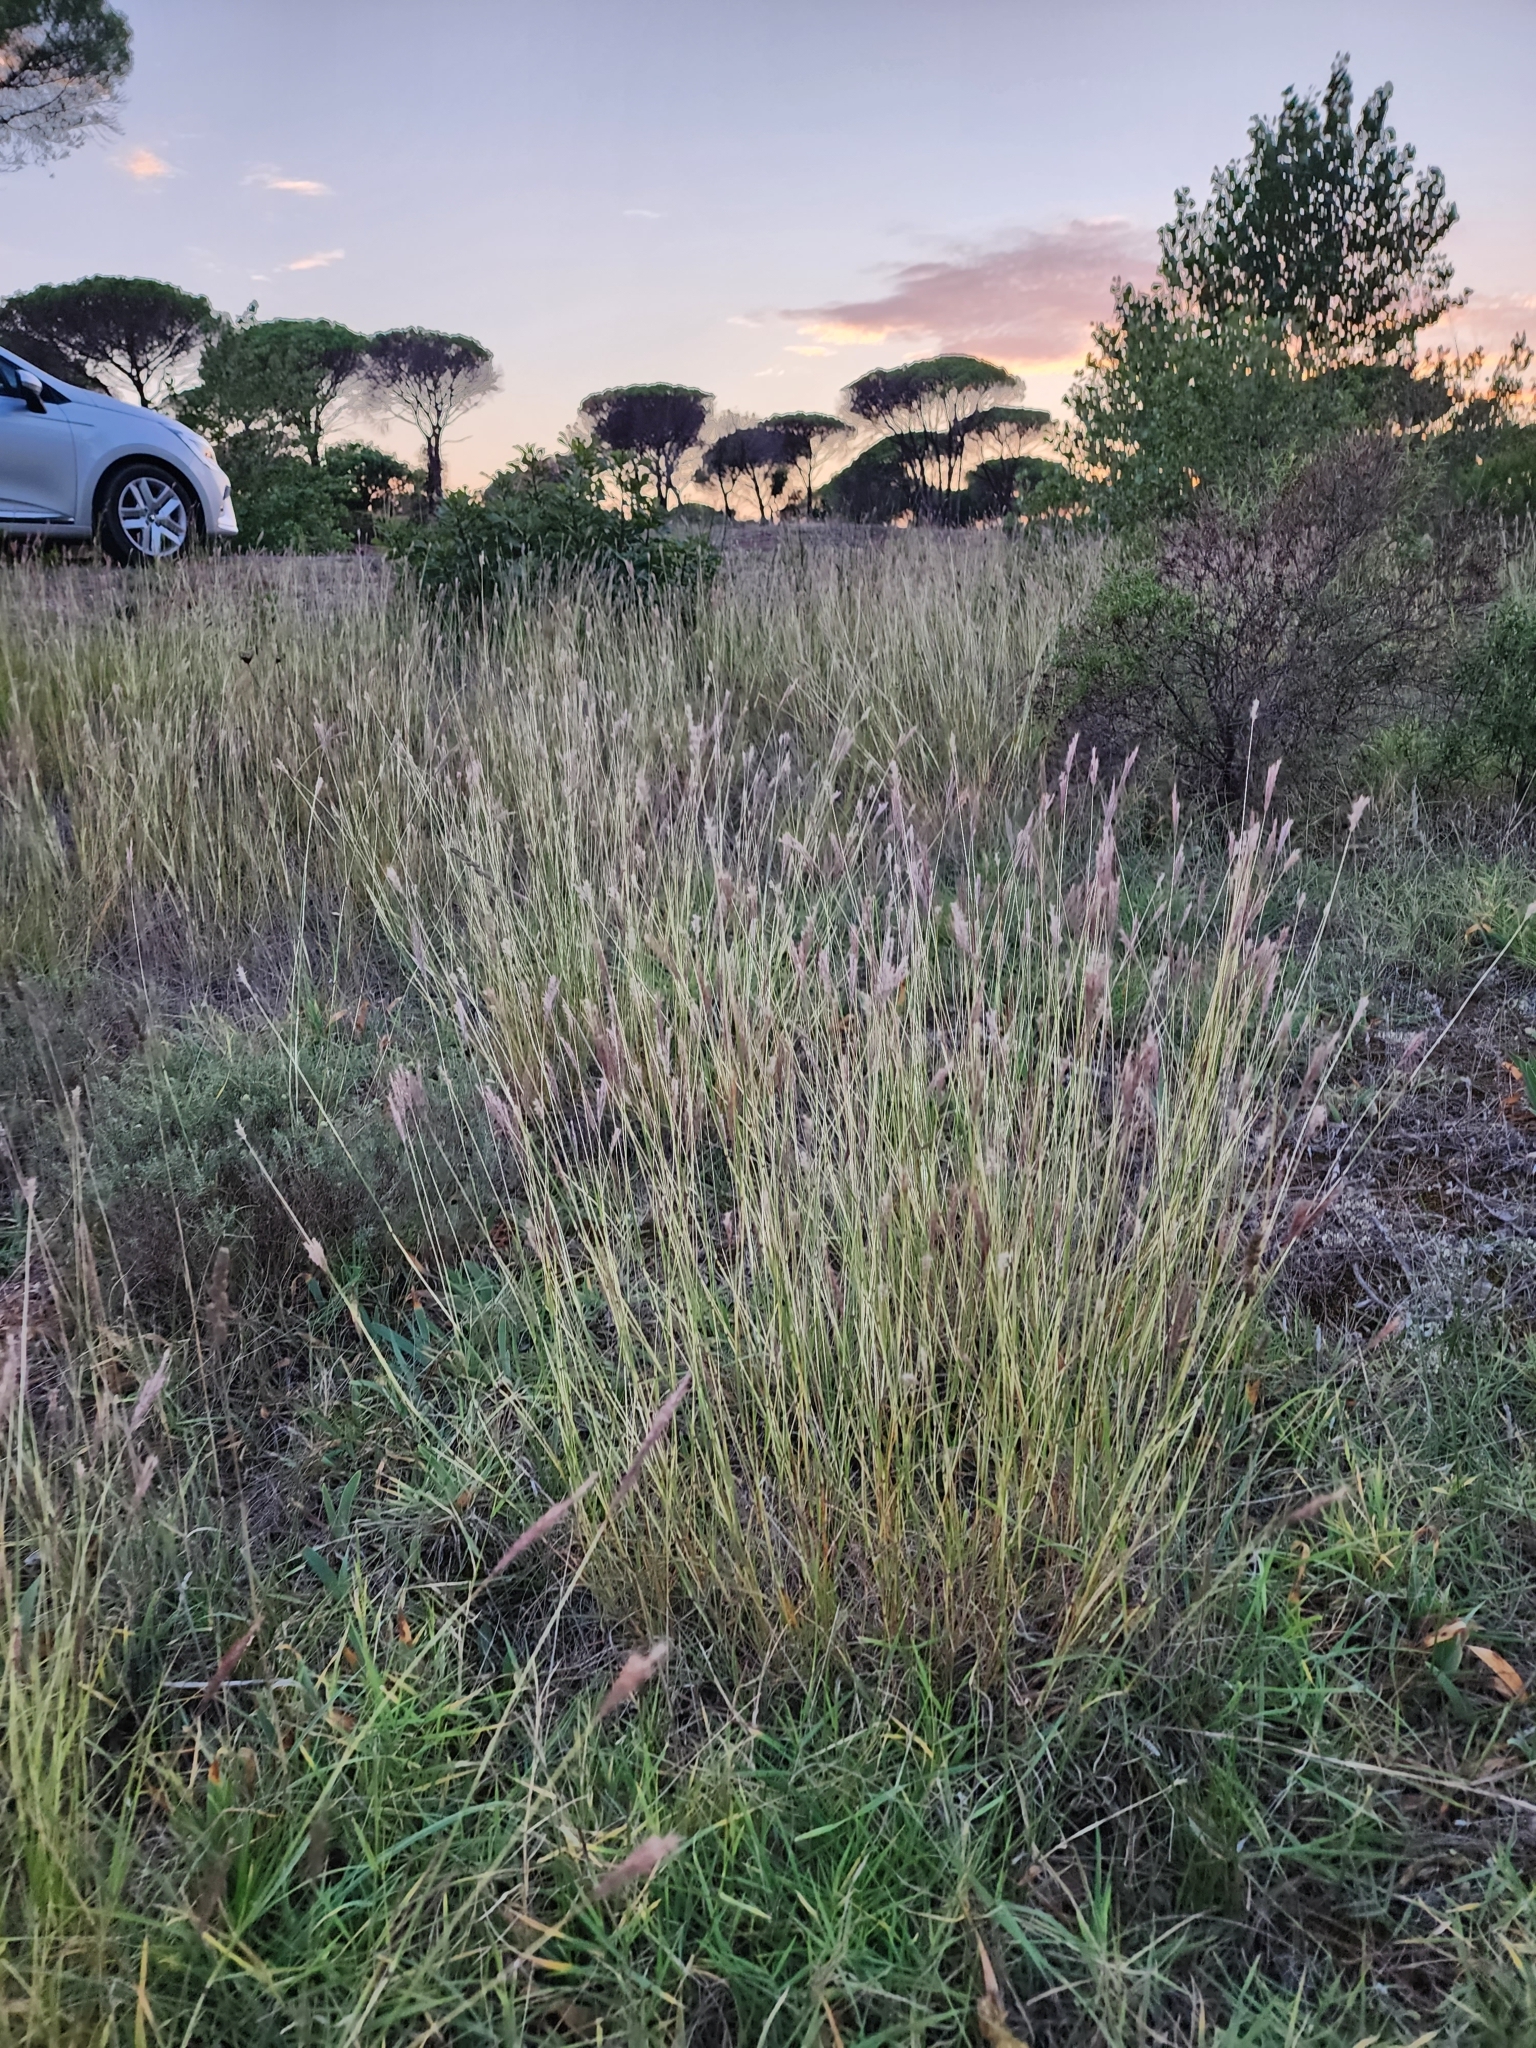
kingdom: Plantae
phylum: Tracheophyta
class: Liliopsida
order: Poales
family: Poaceae
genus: Bothriochloa
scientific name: Bothriochloa ischaemum
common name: Yellow bluestem
